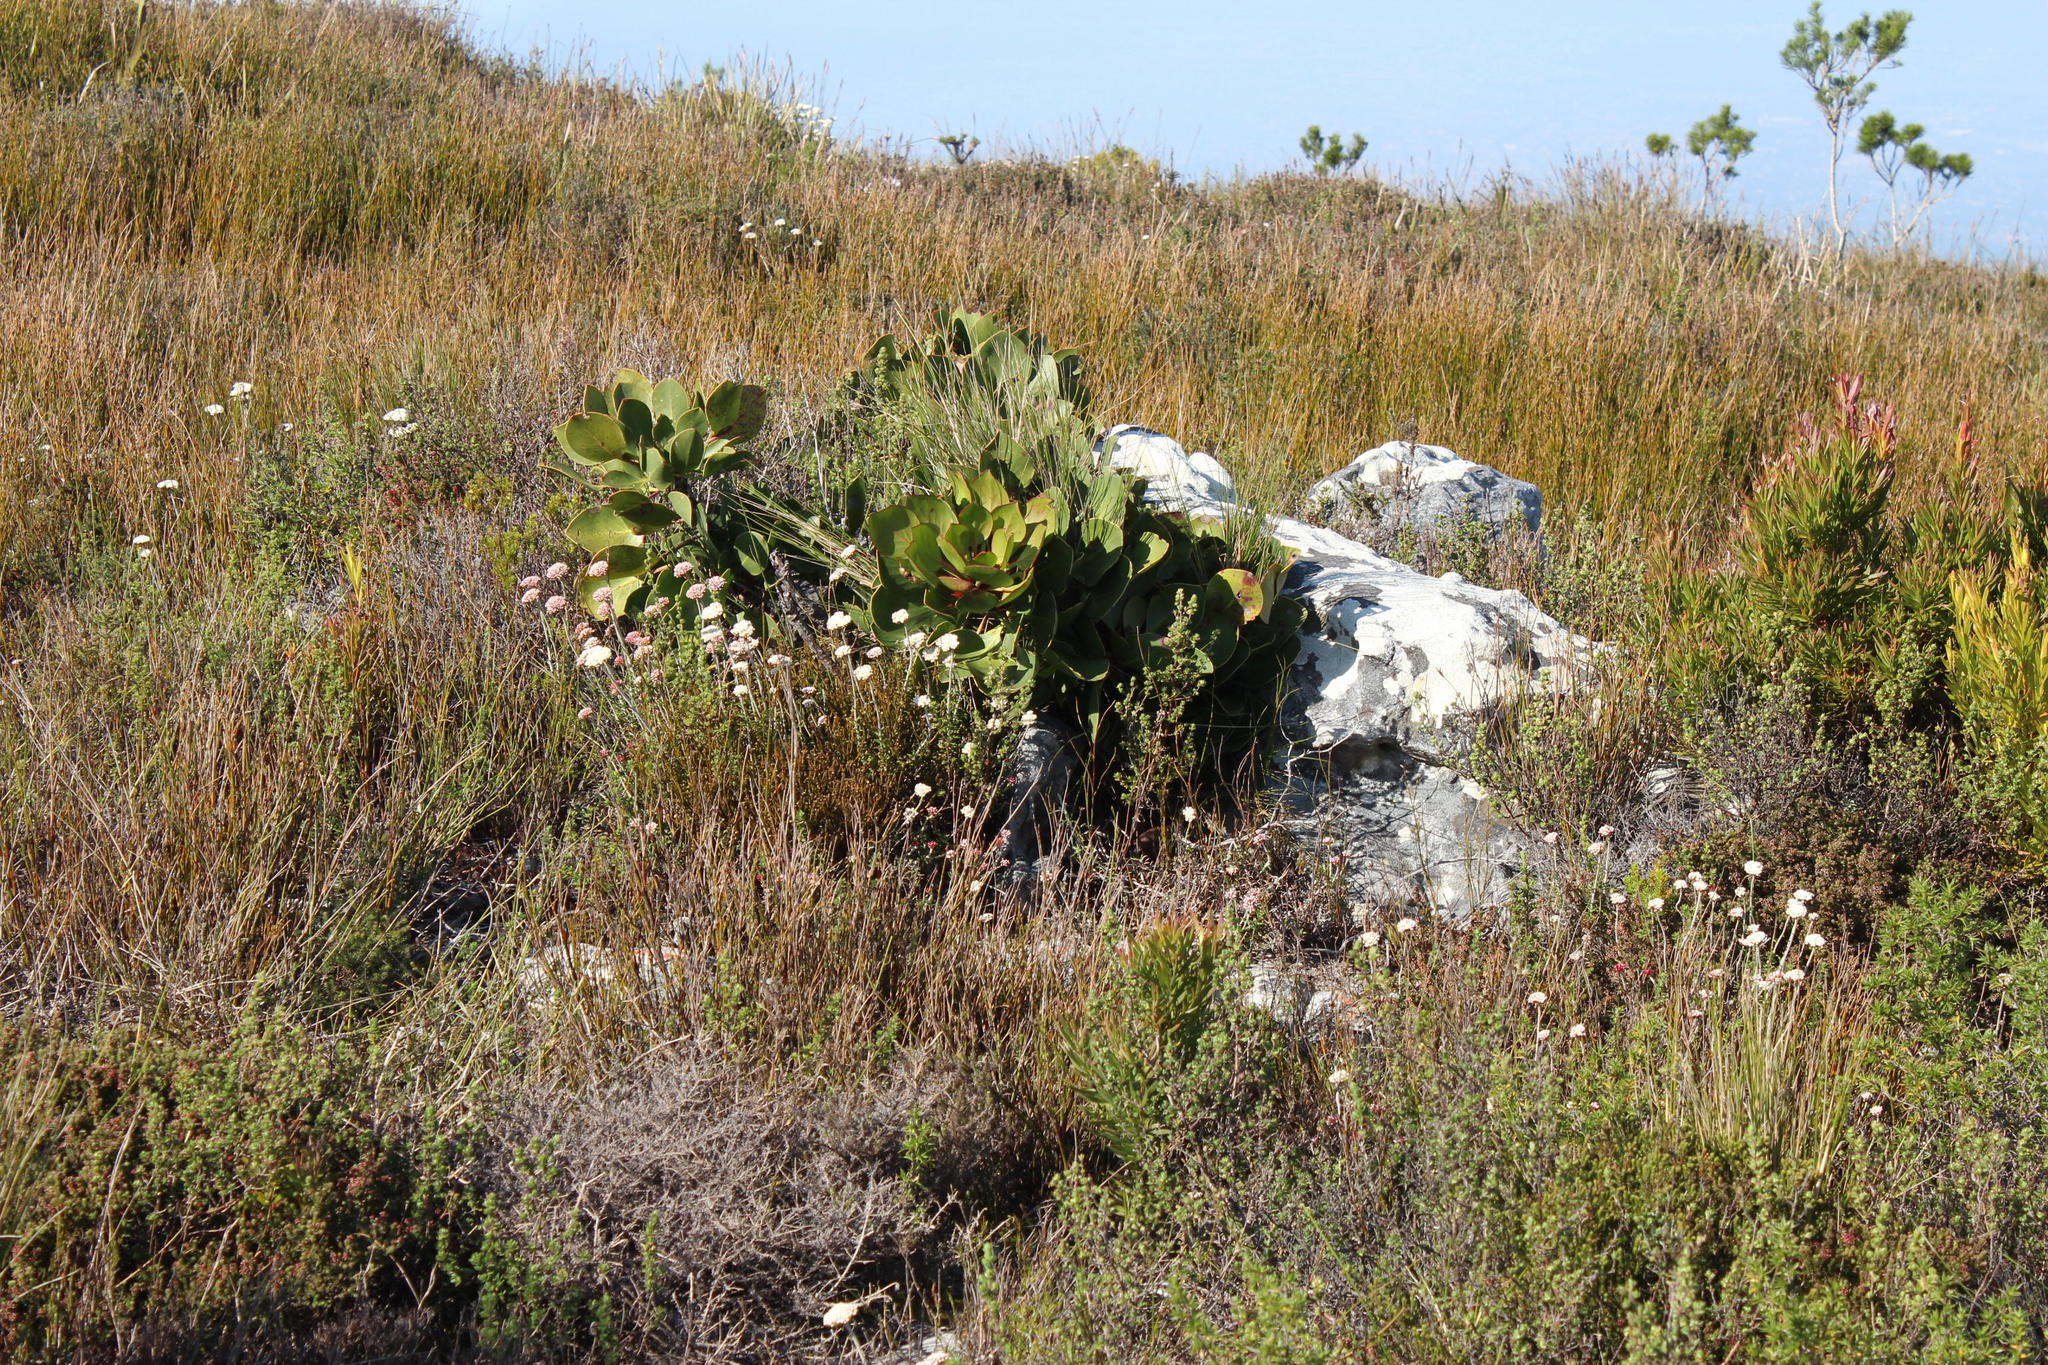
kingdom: Plantae
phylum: Tracheophyta
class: Magnoliopsida
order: Proteales
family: Proteaceae
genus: Protea
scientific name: Protea cynaroides
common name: King protea
